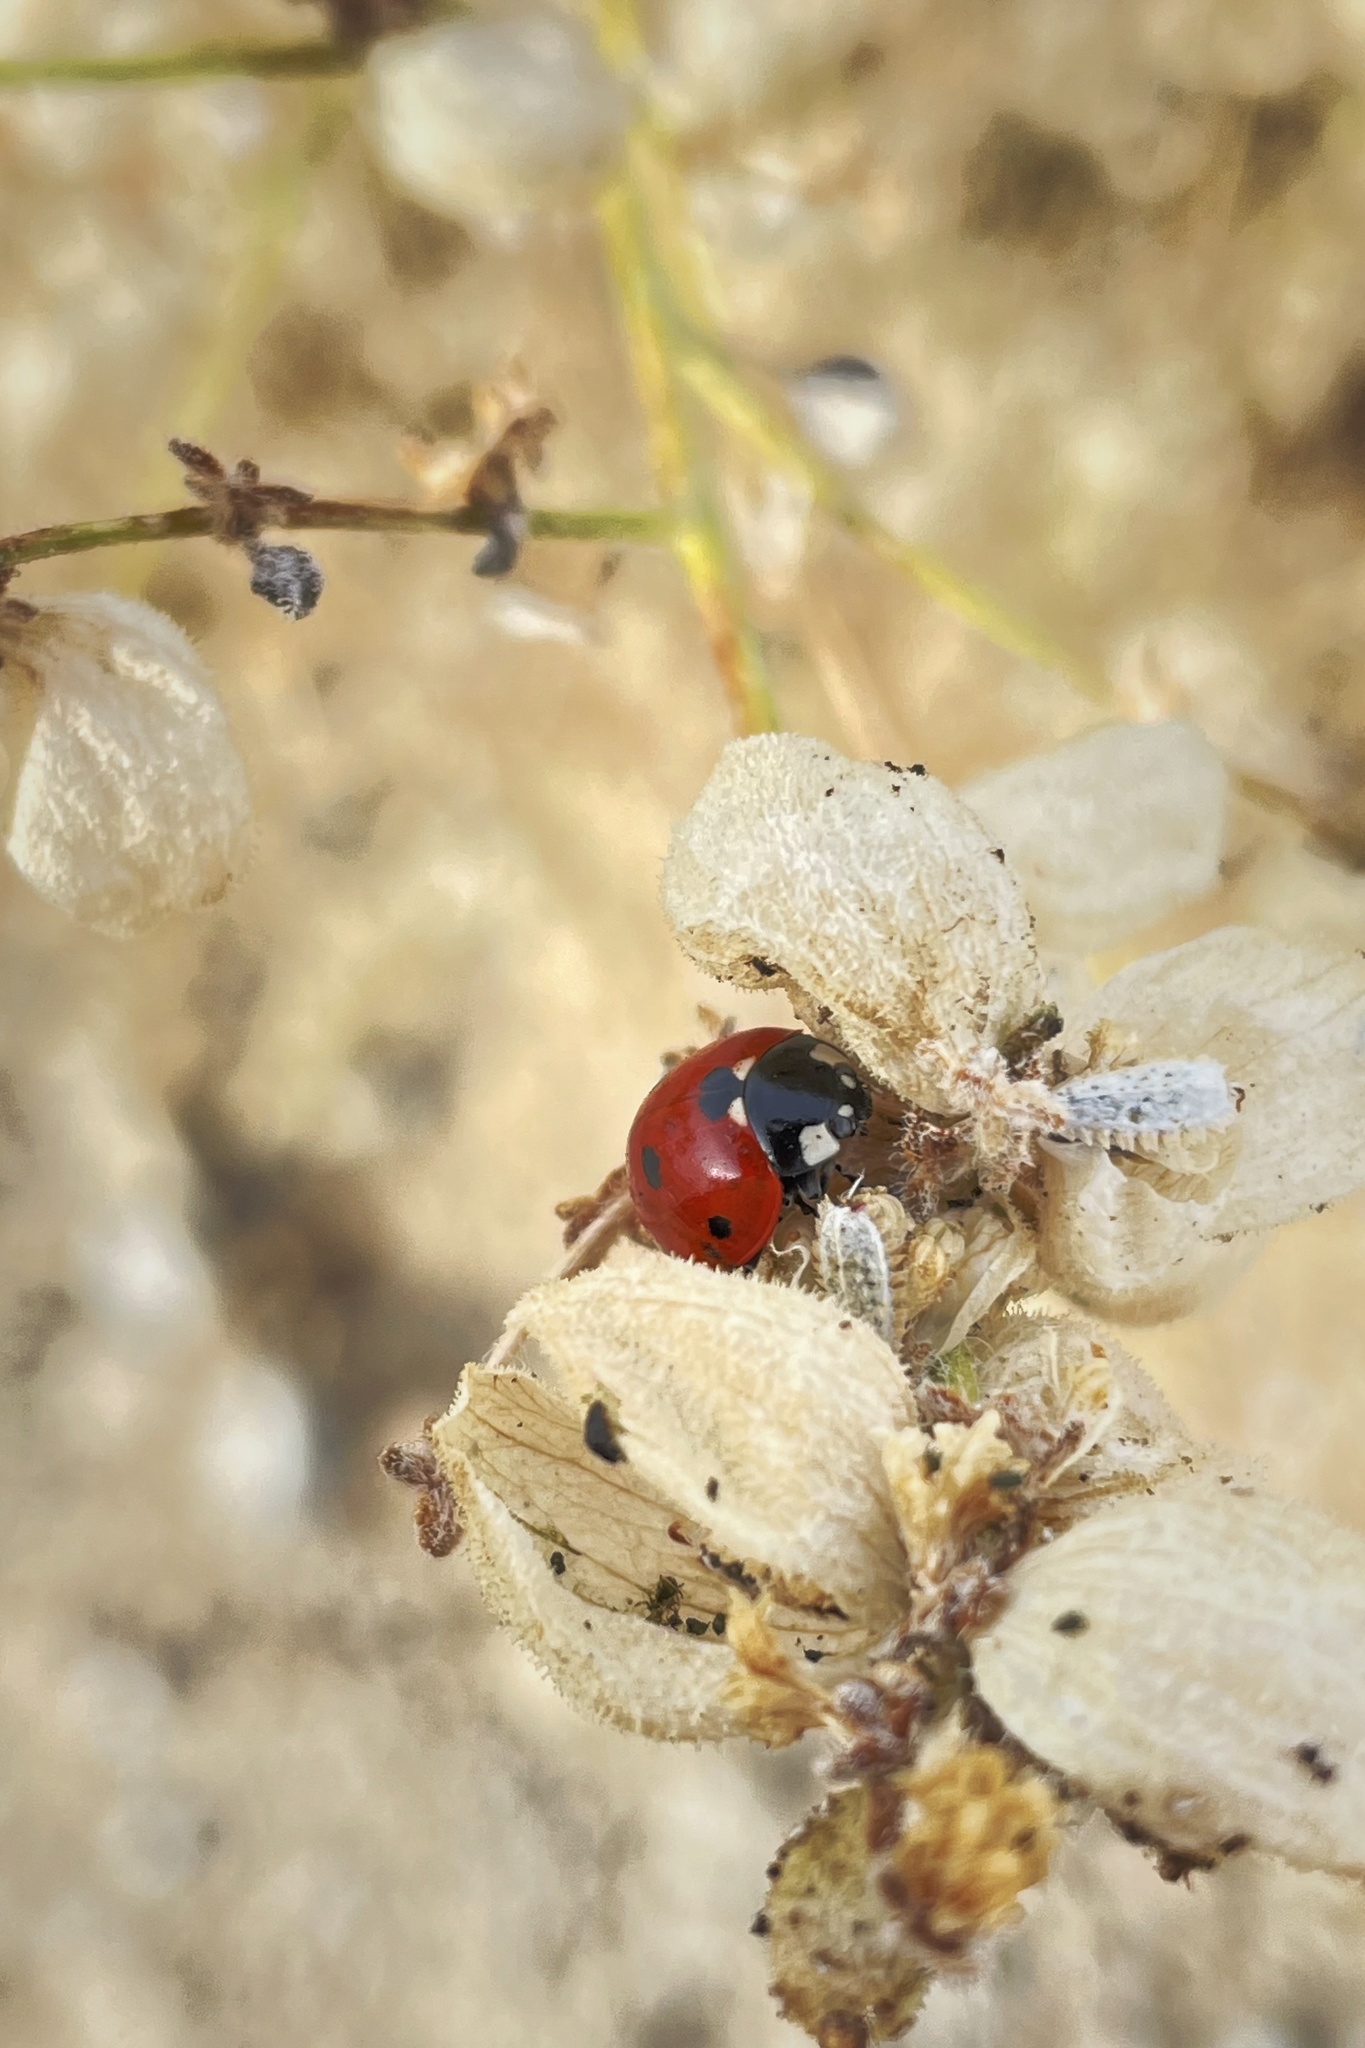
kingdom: Animalia
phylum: Arthropoda
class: Insecta
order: Coleoptera
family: Coccinellidae
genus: Coccinella
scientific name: Coccinella septempunctata
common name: Sevenspotted lady beetle
